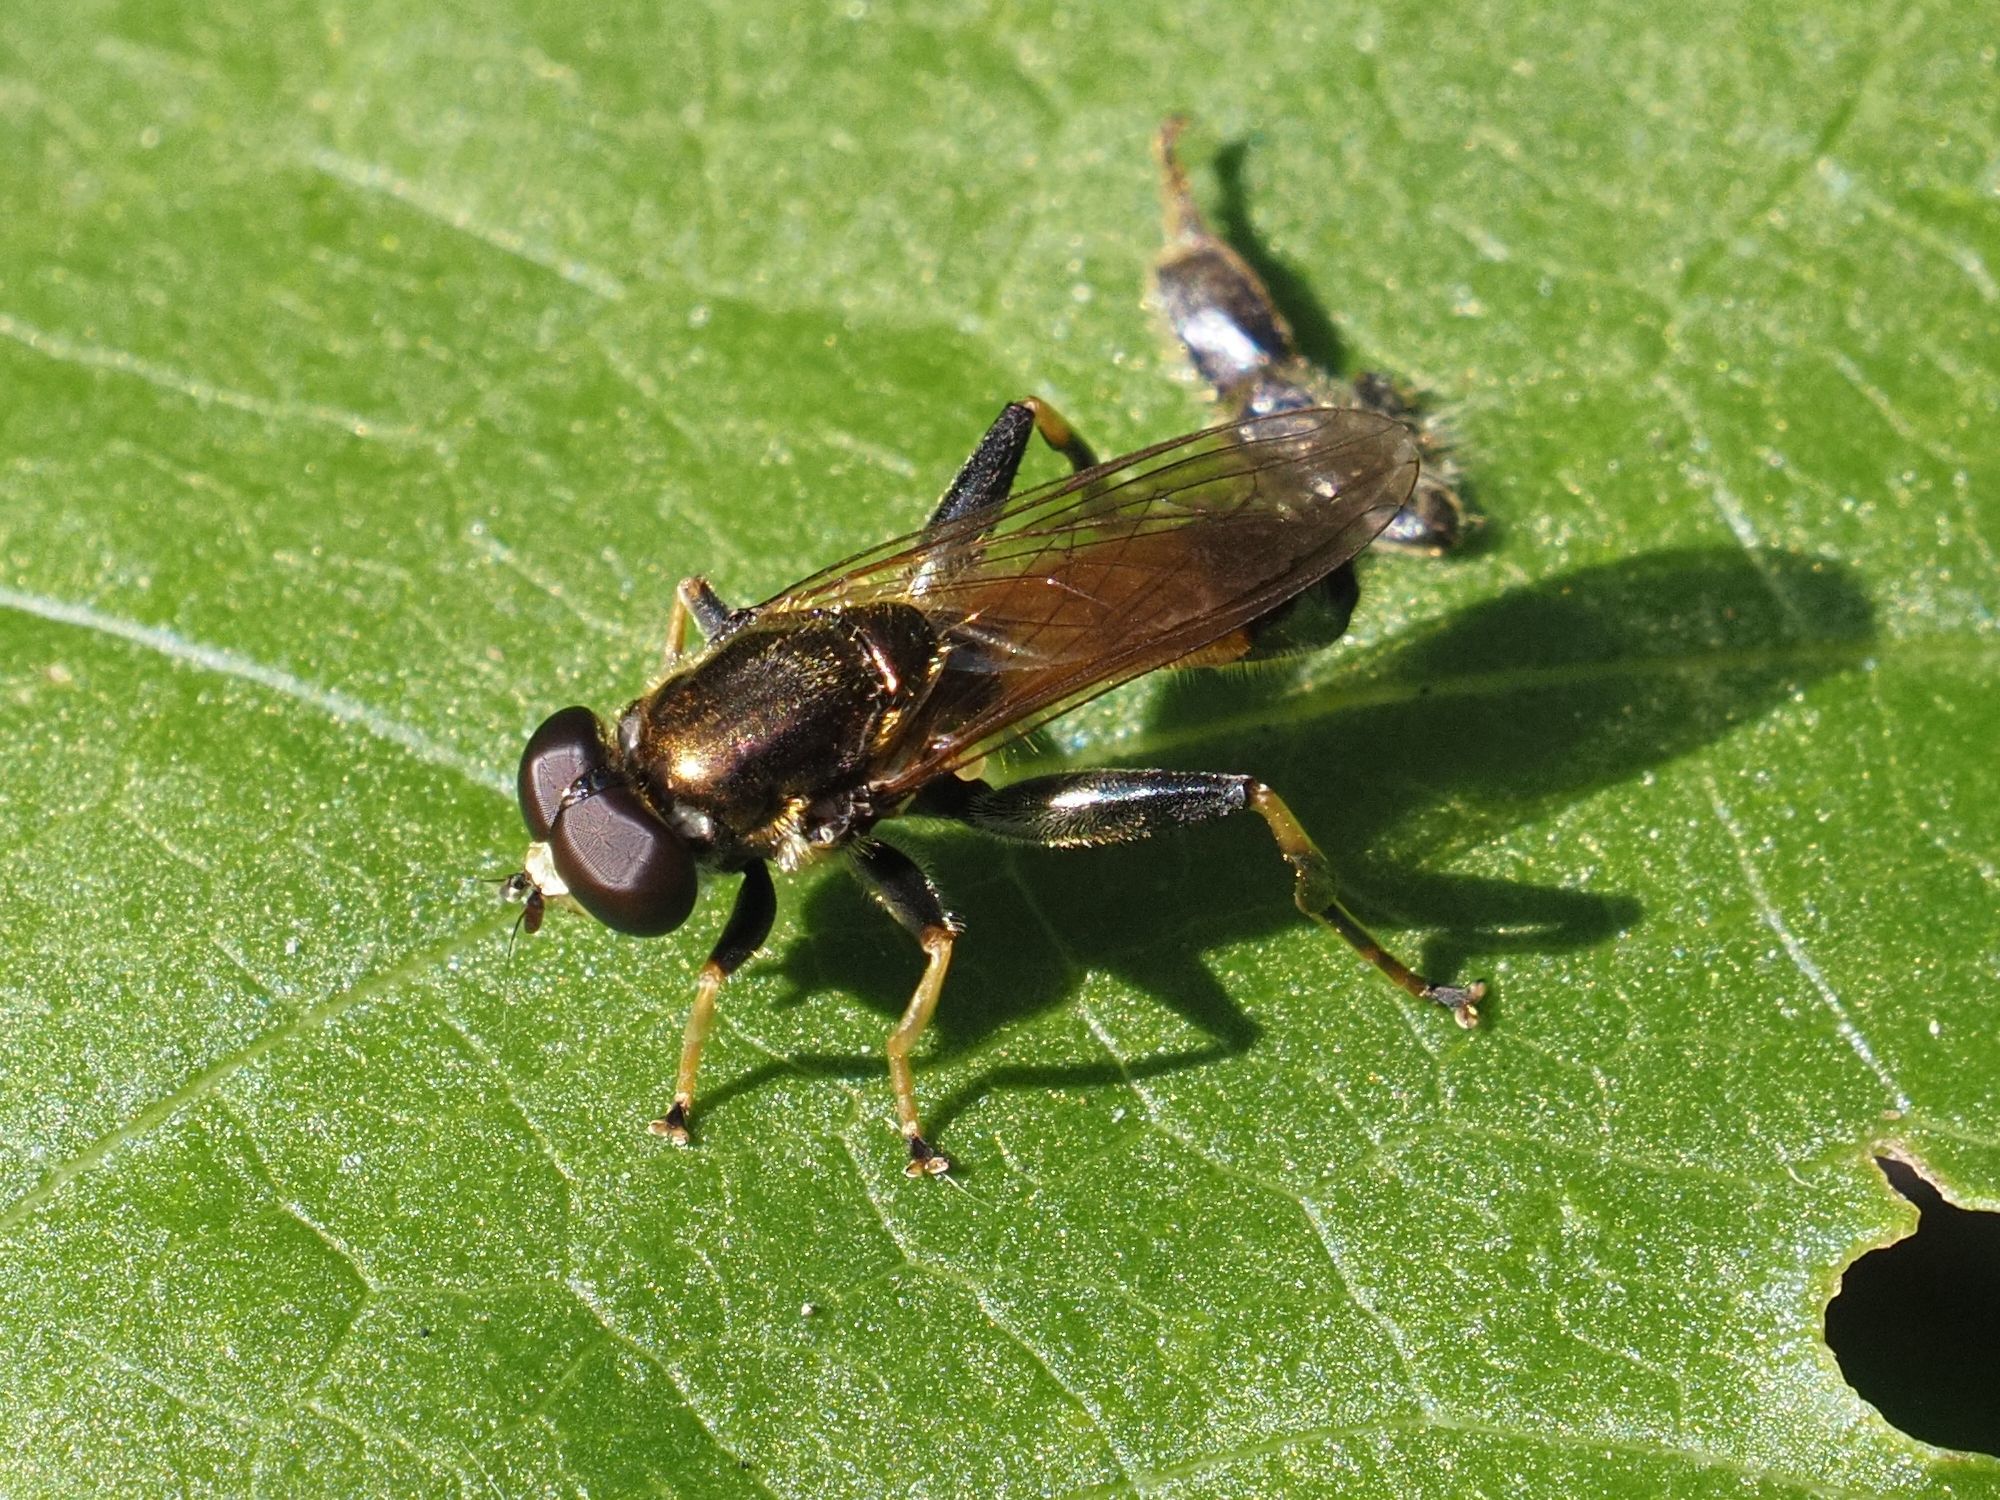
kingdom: Animalia
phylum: Arthropoda
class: Insecta
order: Diptera
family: Syrphidae
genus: Xylota
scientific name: Xylota segnis
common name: Brown-toed forest fly
